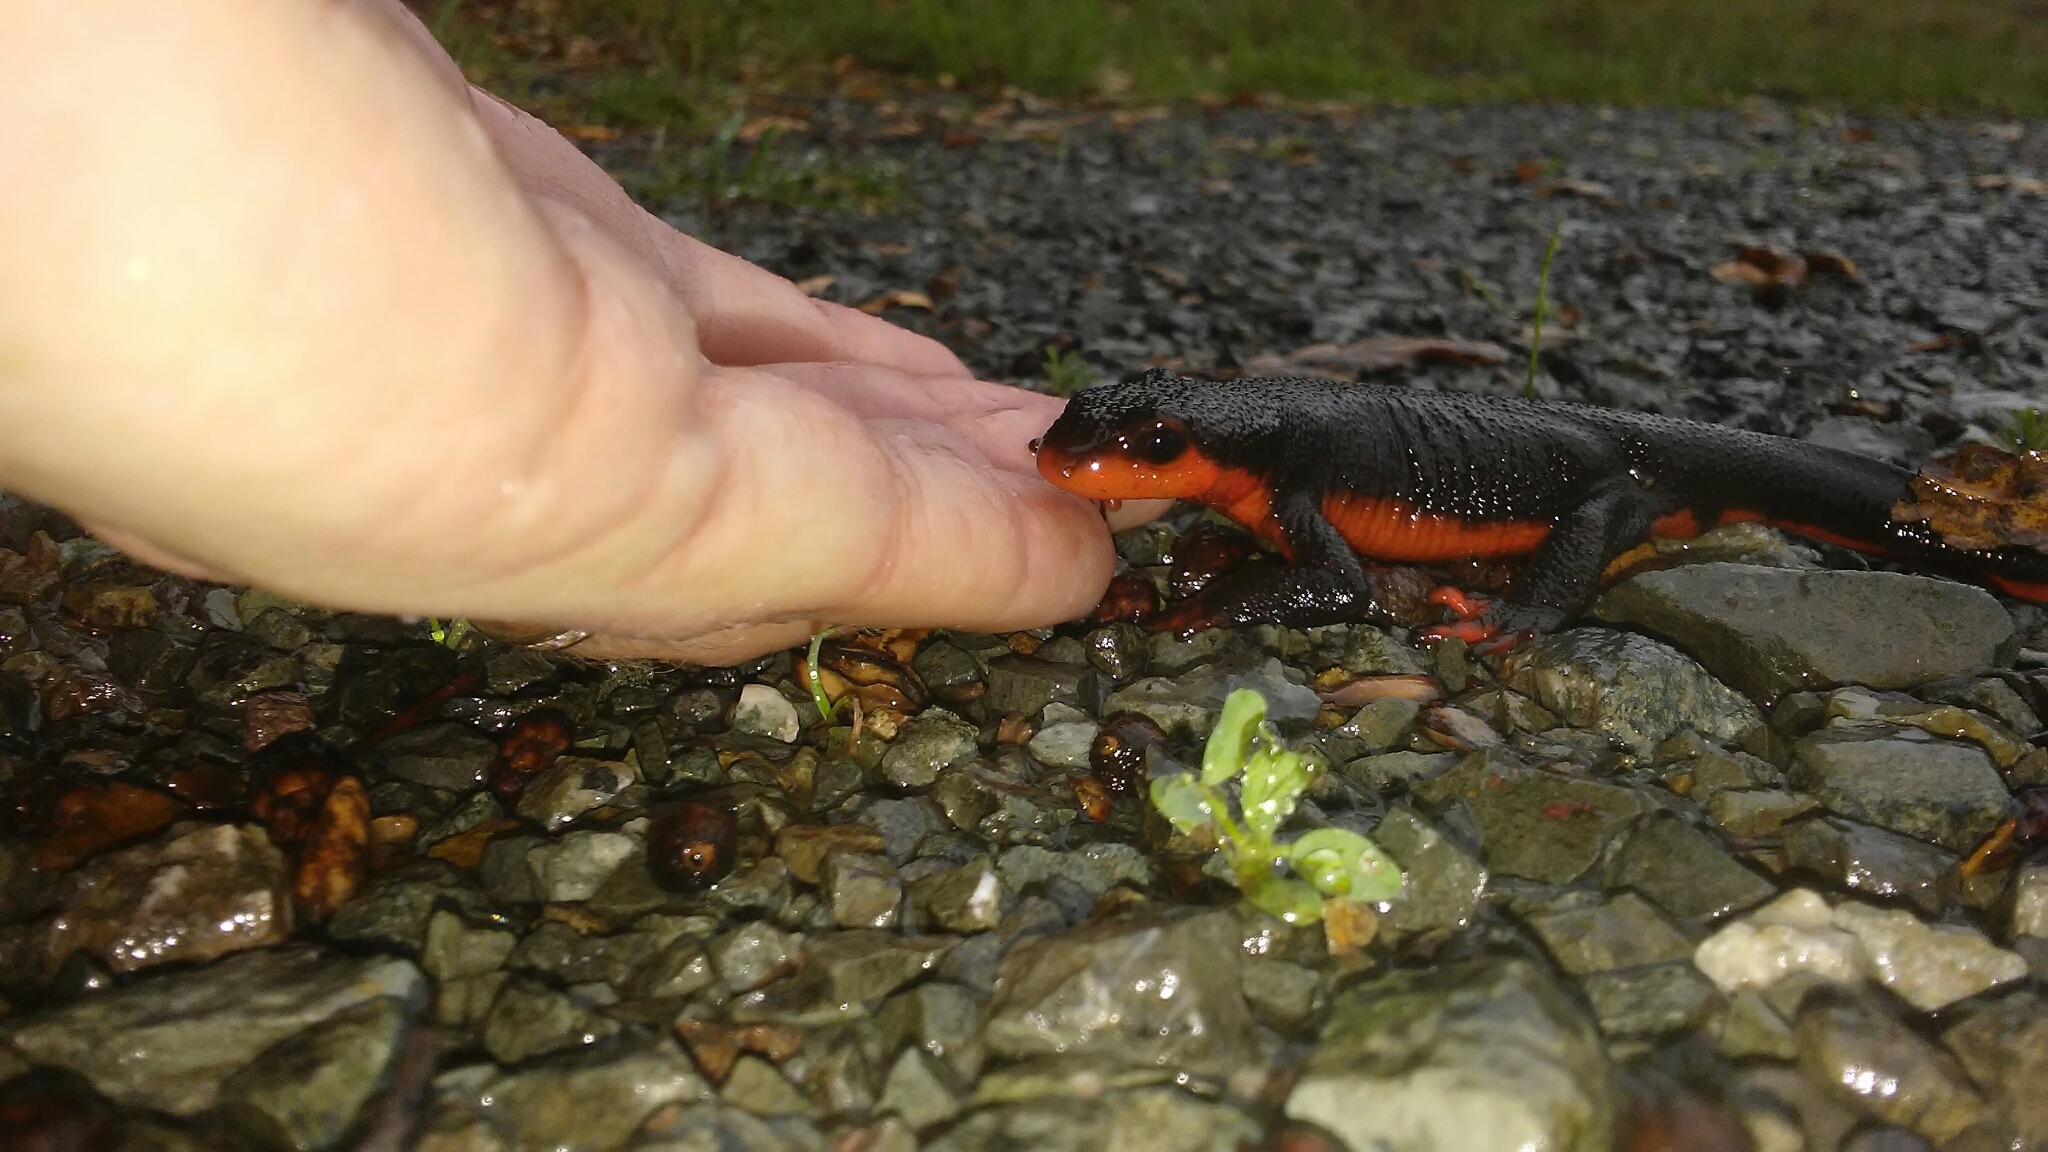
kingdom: Animalia
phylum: Chordata
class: Amphibia
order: Caudata
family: Salamandridae
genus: Taricha
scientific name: Taricha rivularis
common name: Red-bellied newt
